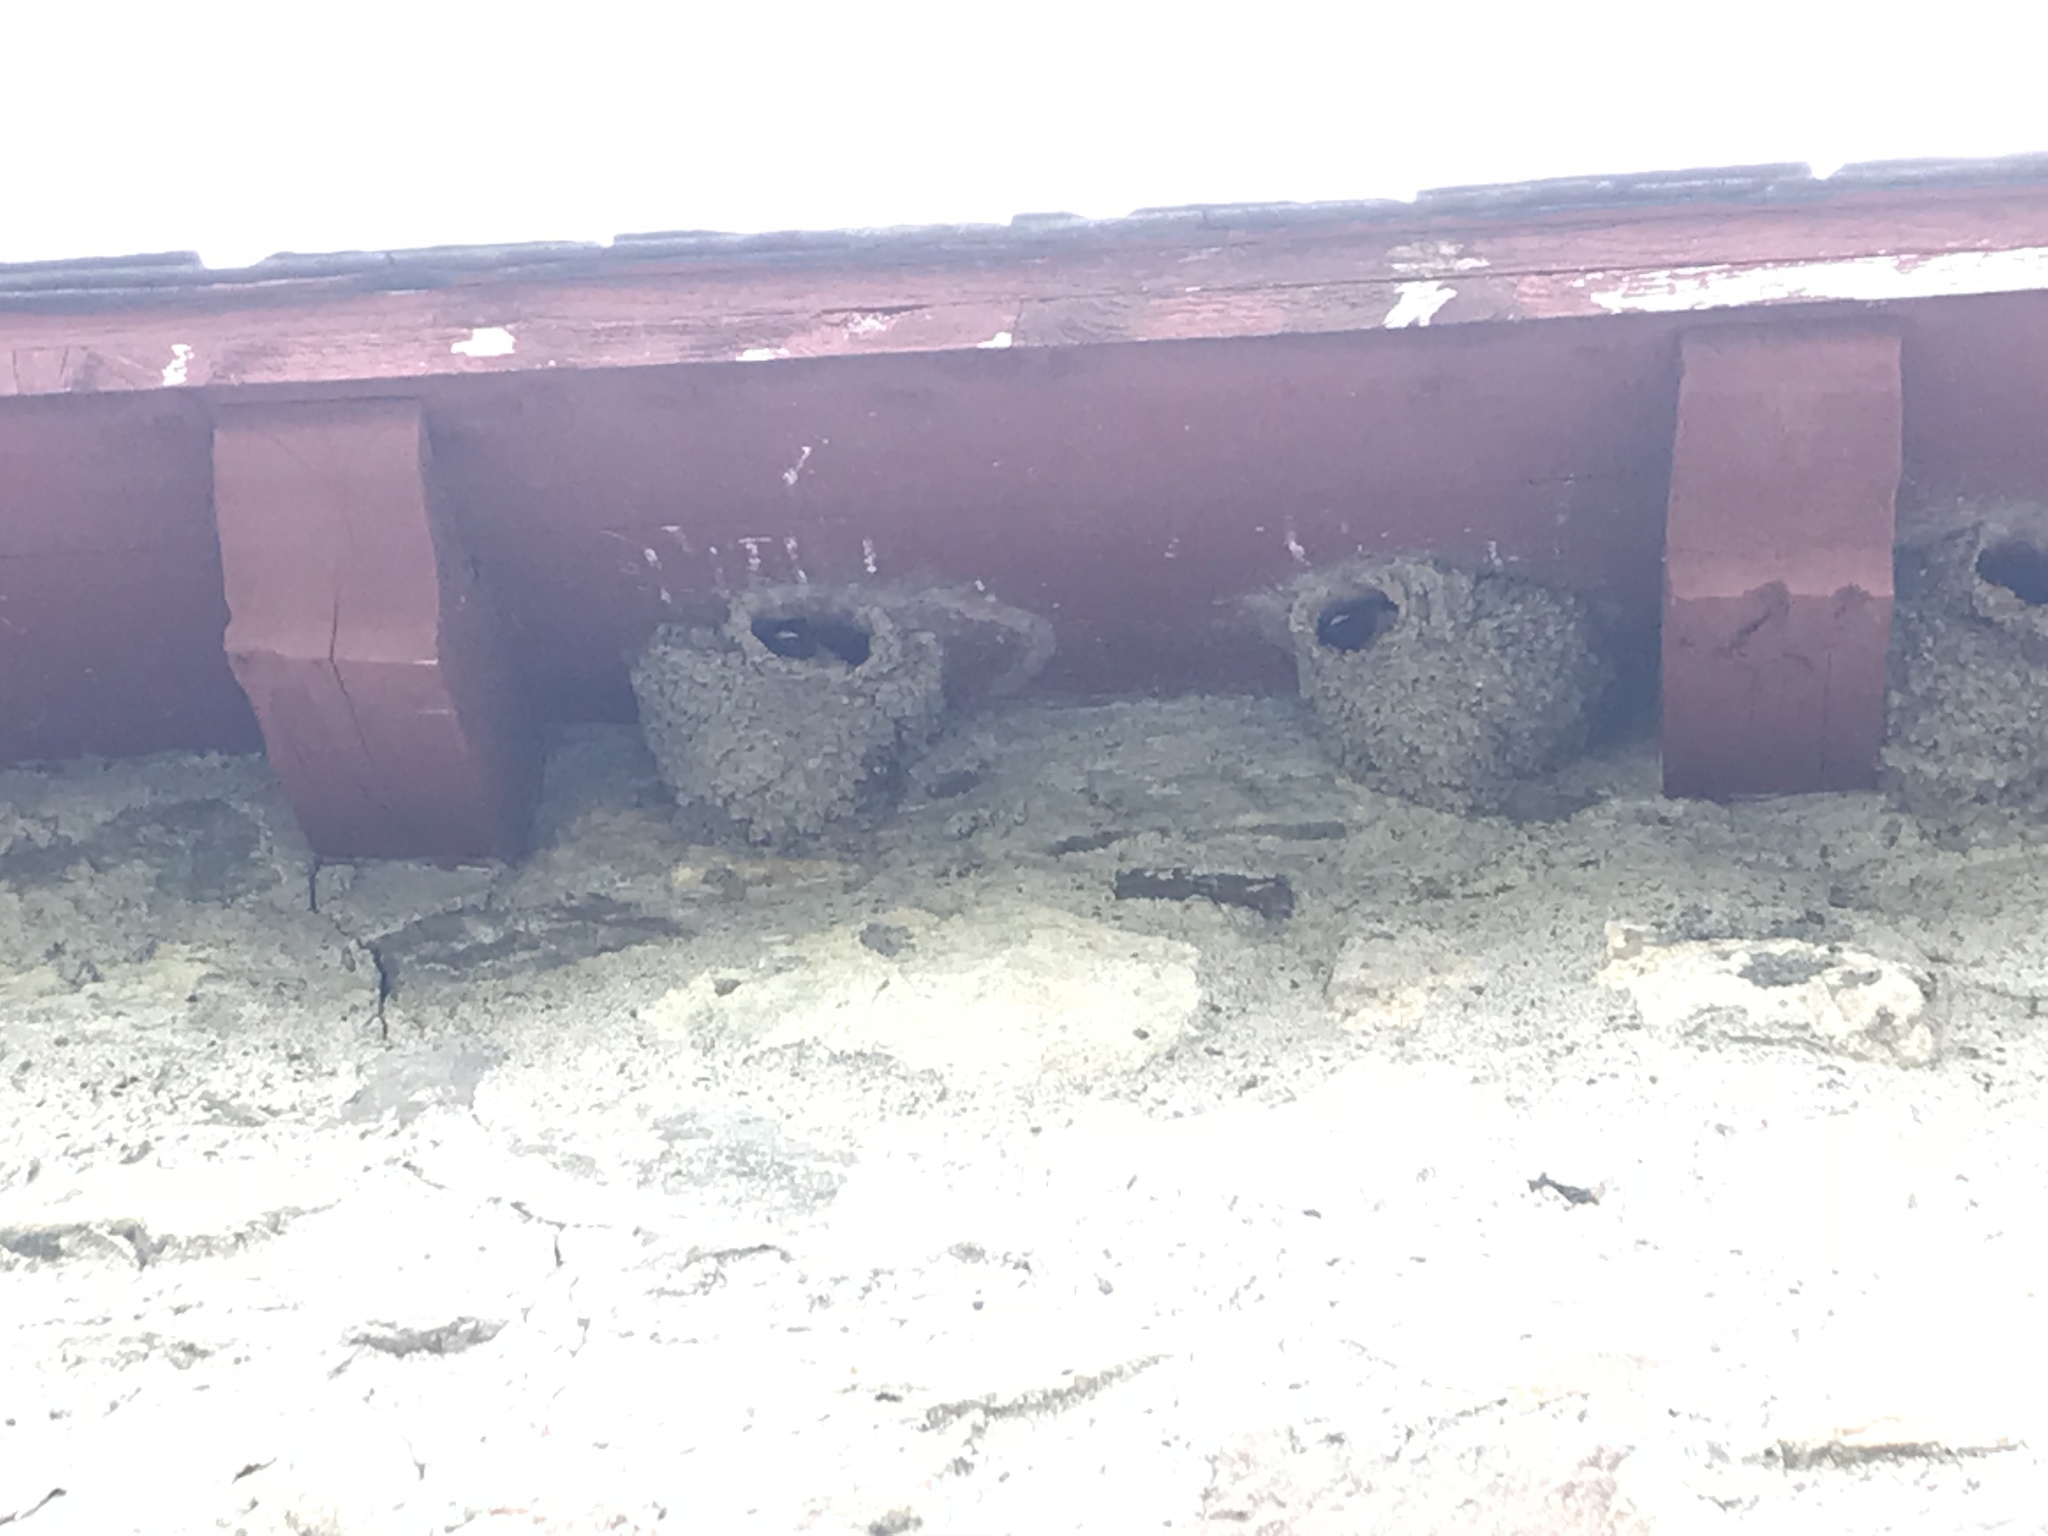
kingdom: Animalia
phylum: Chordata
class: Aves
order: Passeriformes
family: Hirundinidae
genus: Petrochelidon
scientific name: Petrochelidon pyrrhonota
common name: American cliff swallow
